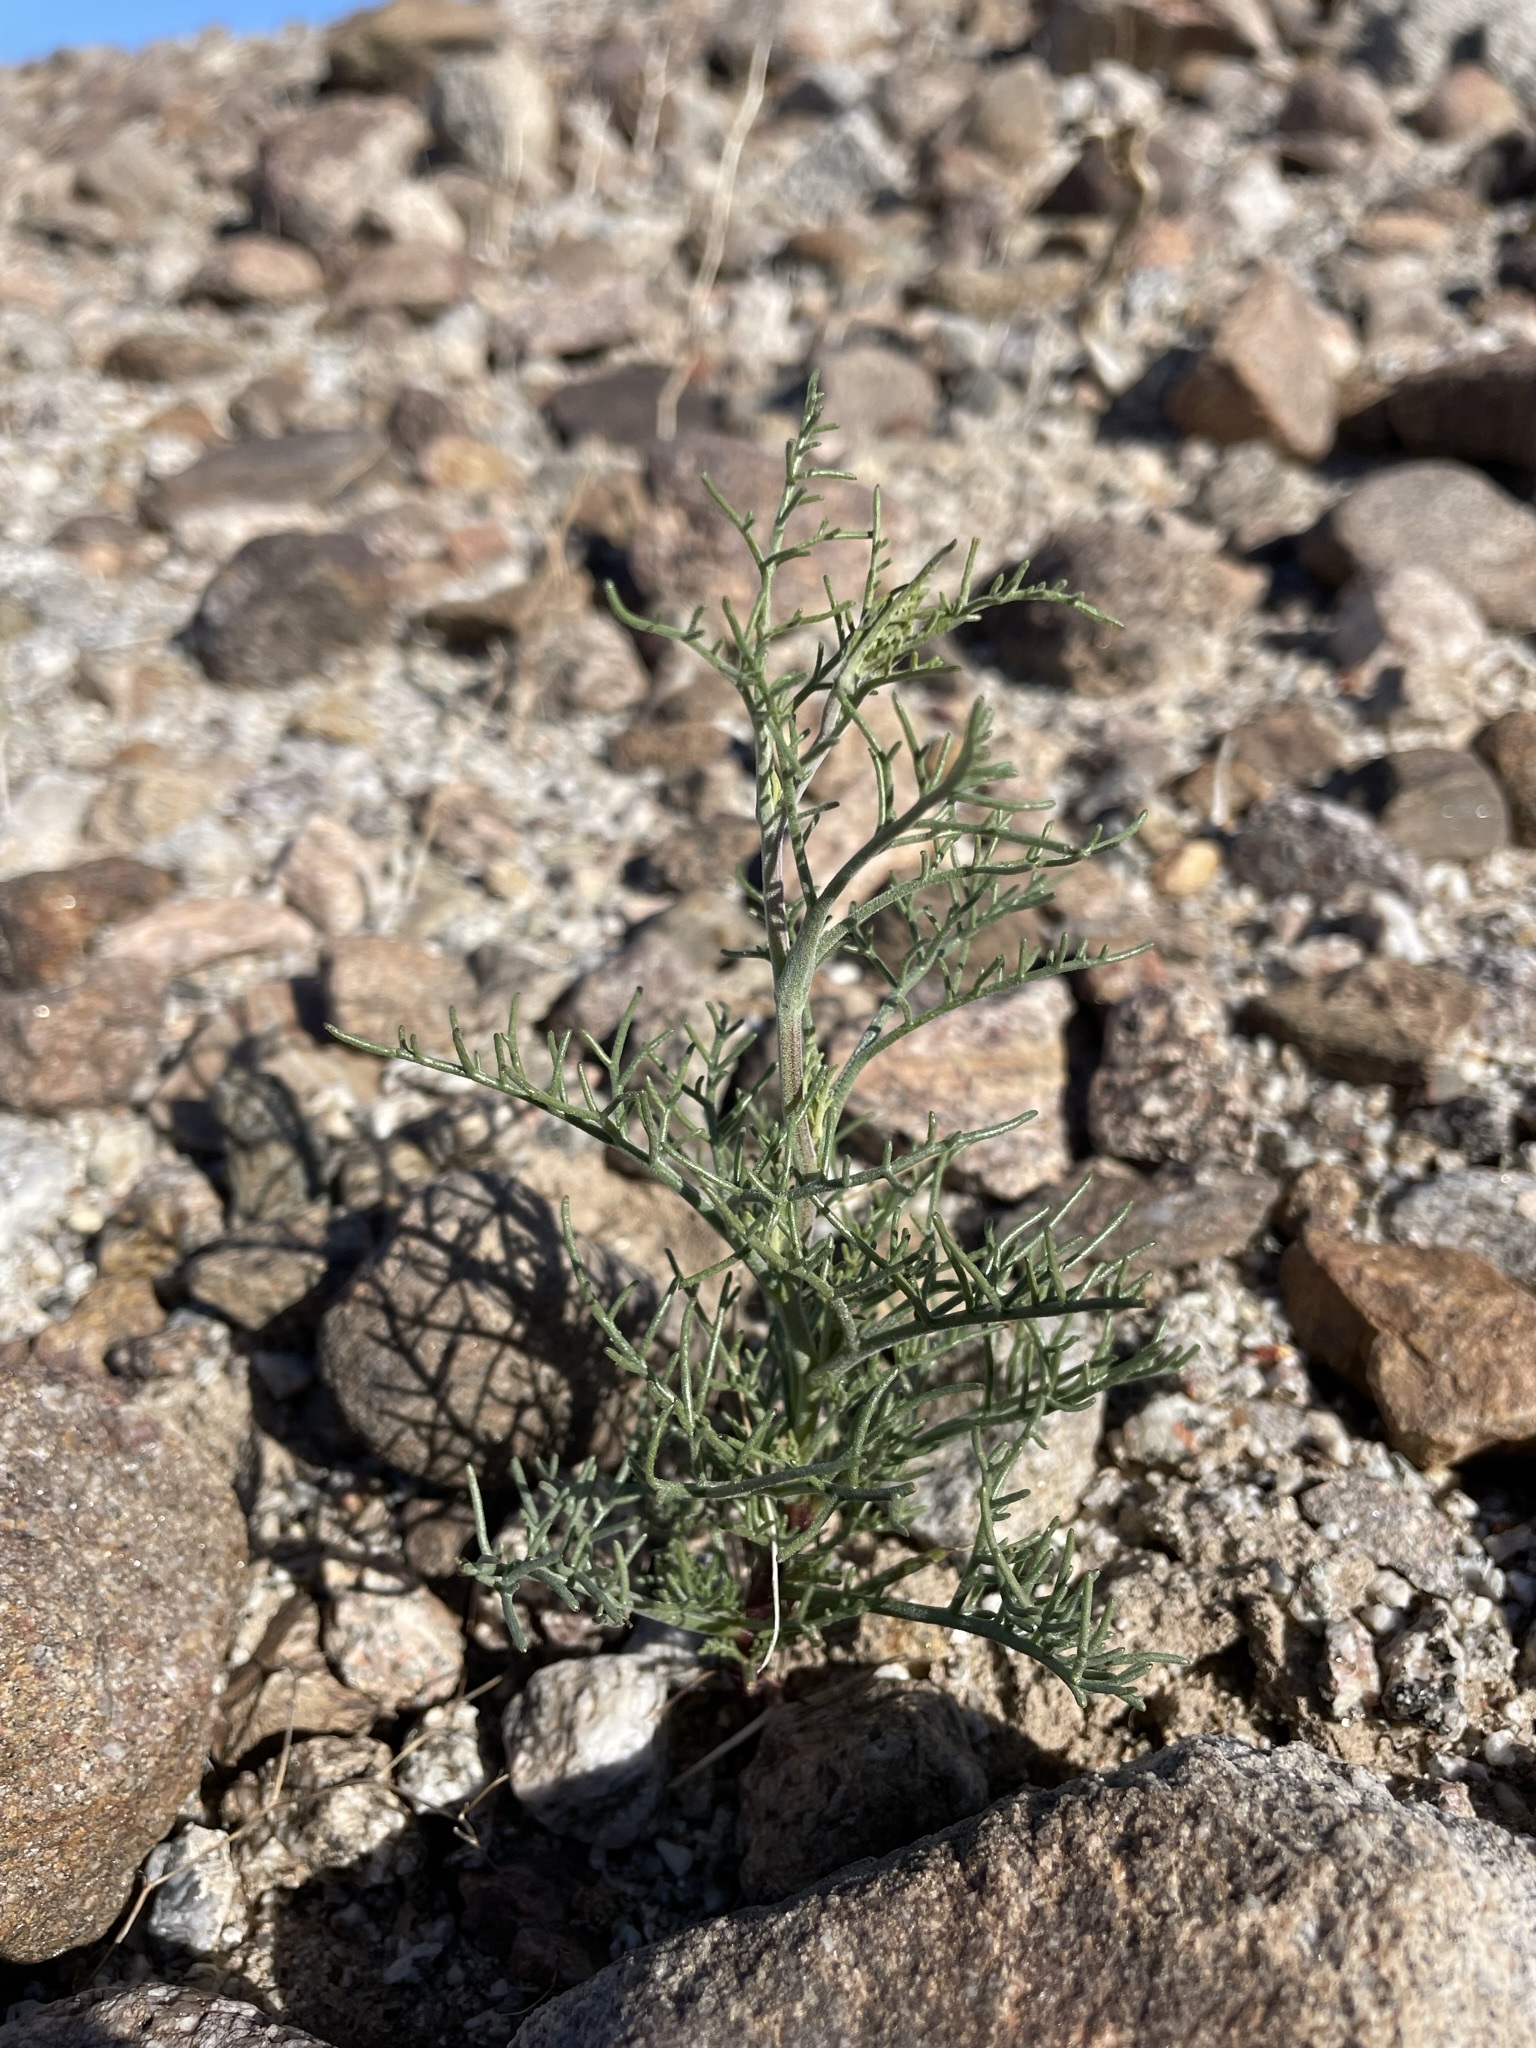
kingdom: Plantae
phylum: Tracheophyta
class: Magnoliopsida
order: Asterales
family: Asteraceae
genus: Chaenactis
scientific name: Chaenactis carphoclinia
